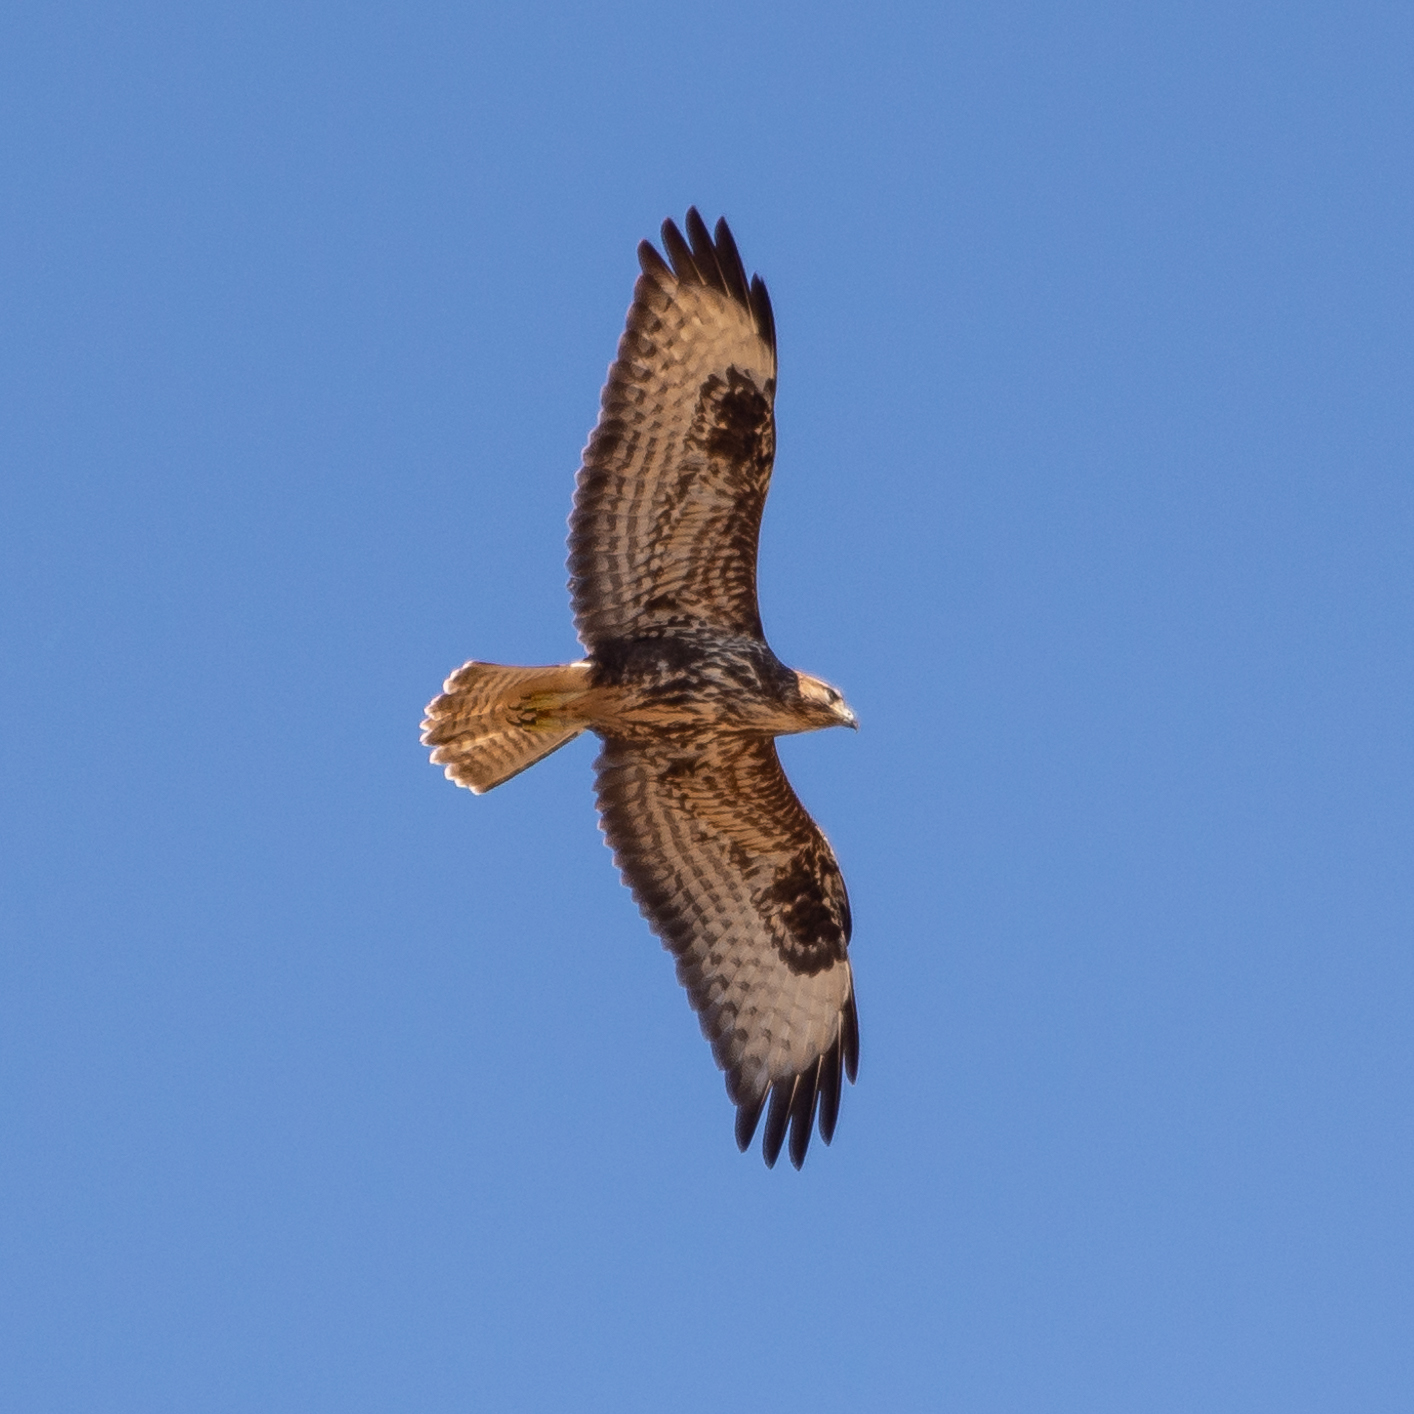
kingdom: Animalia
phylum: Chordata
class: Aves
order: Accipitriformes
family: Accipitridae
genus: Buteo
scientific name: Buteo buteo
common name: Common buzzard
